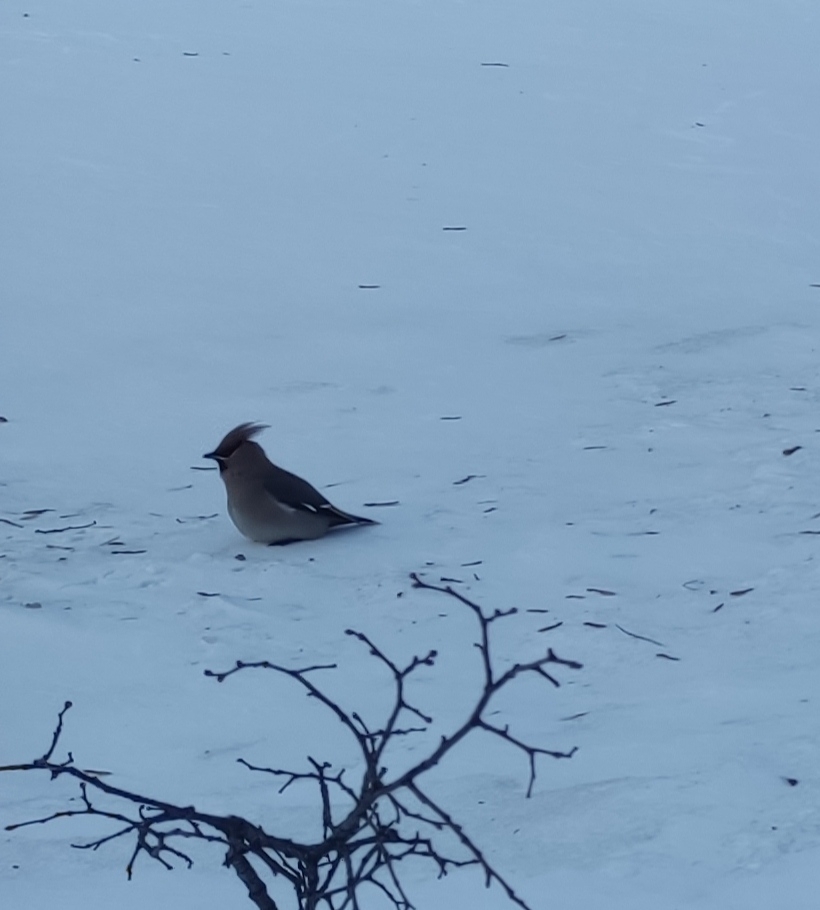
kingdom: Animalia
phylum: Chordata
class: Aves
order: Passeriformes
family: Bombycillidae
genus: Bombycilla
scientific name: Bombycilla garrulus
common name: Bohemian waxwing
